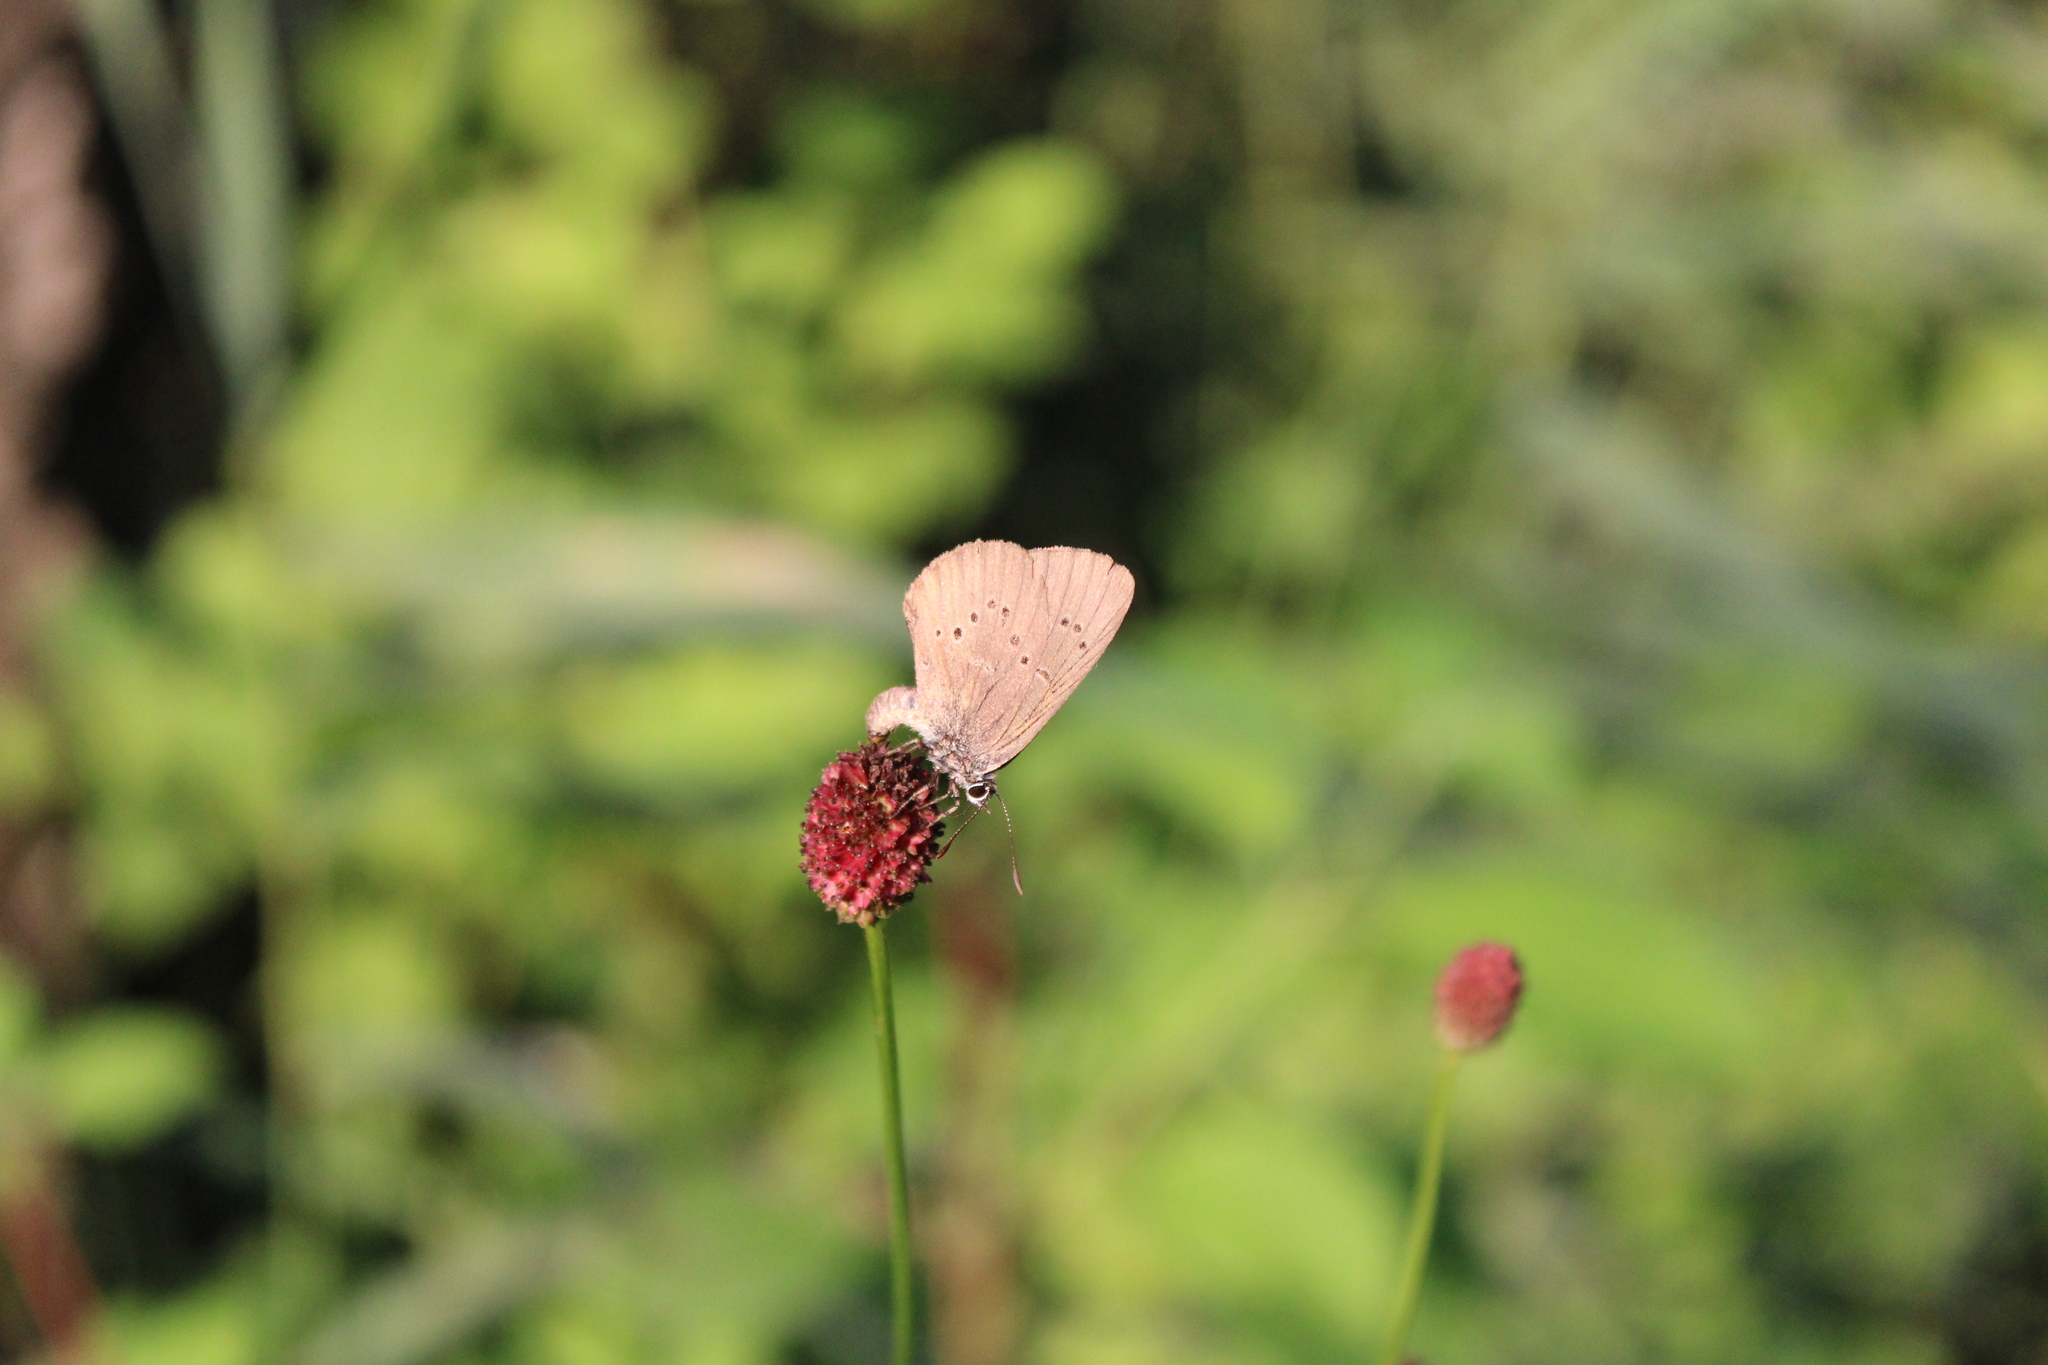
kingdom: Animalia
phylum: Arthropoda
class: Insecta
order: Lepidoptera
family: Lycaenidae
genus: Maculinea
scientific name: Maculinea nausithous
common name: Dusky large blue
